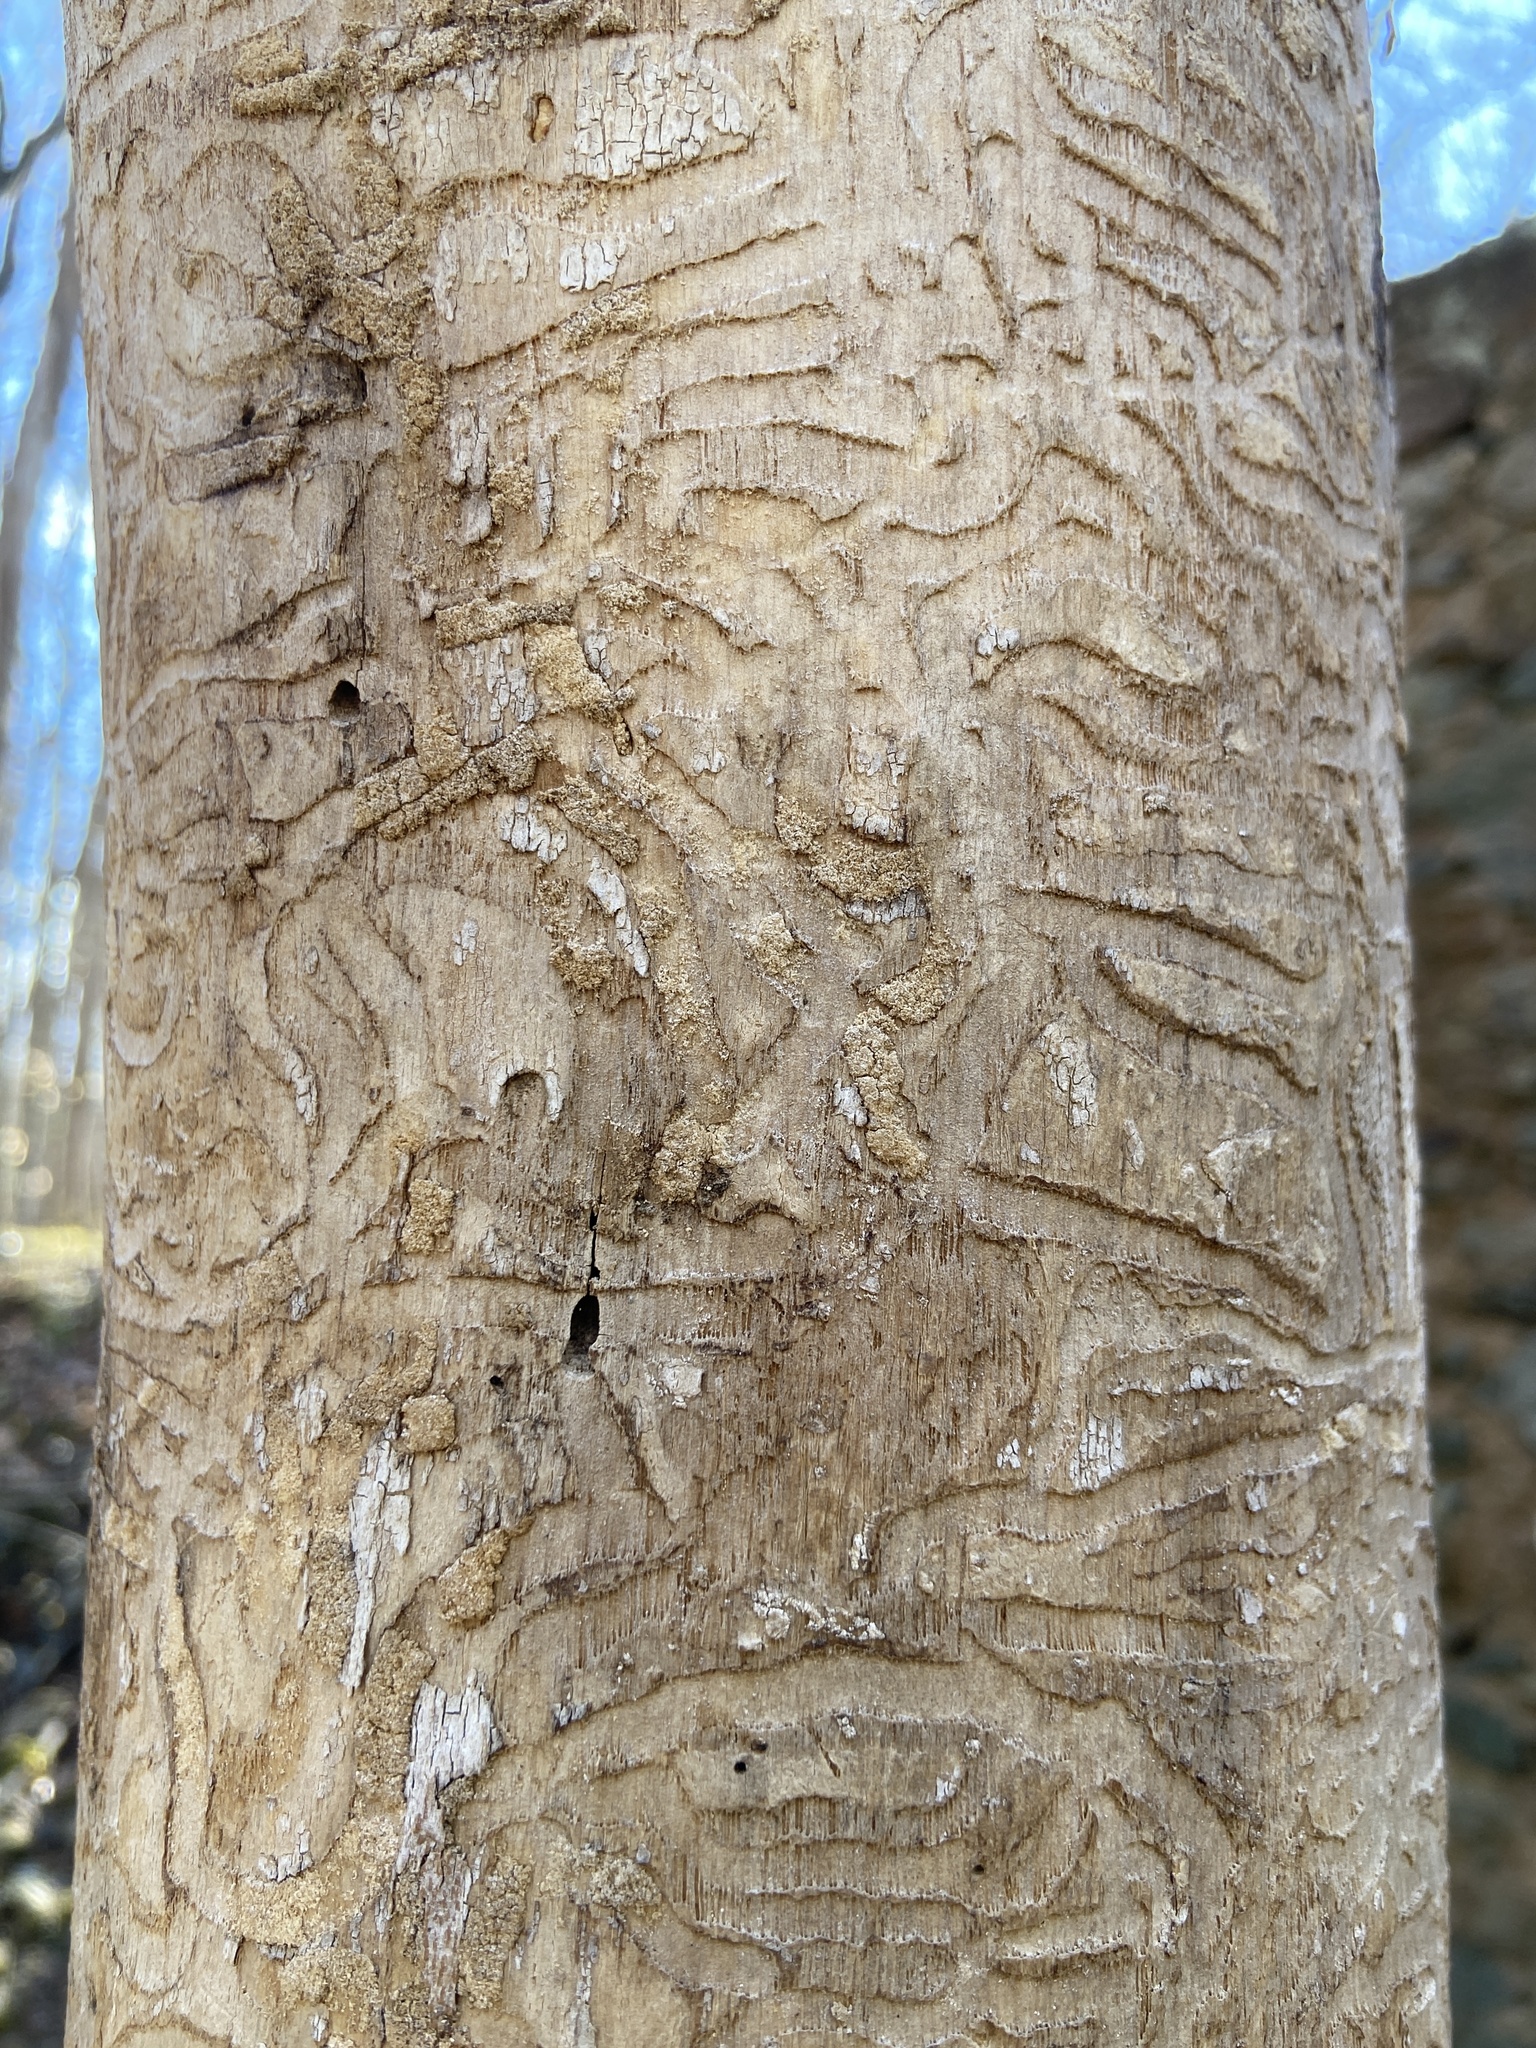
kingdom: Animalia
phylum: Arthropoda
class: Insecta
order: Coleoptera
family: Buprestidae
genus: Agrilus
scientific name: Agrilus planipennis
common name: Emerald ash borer
